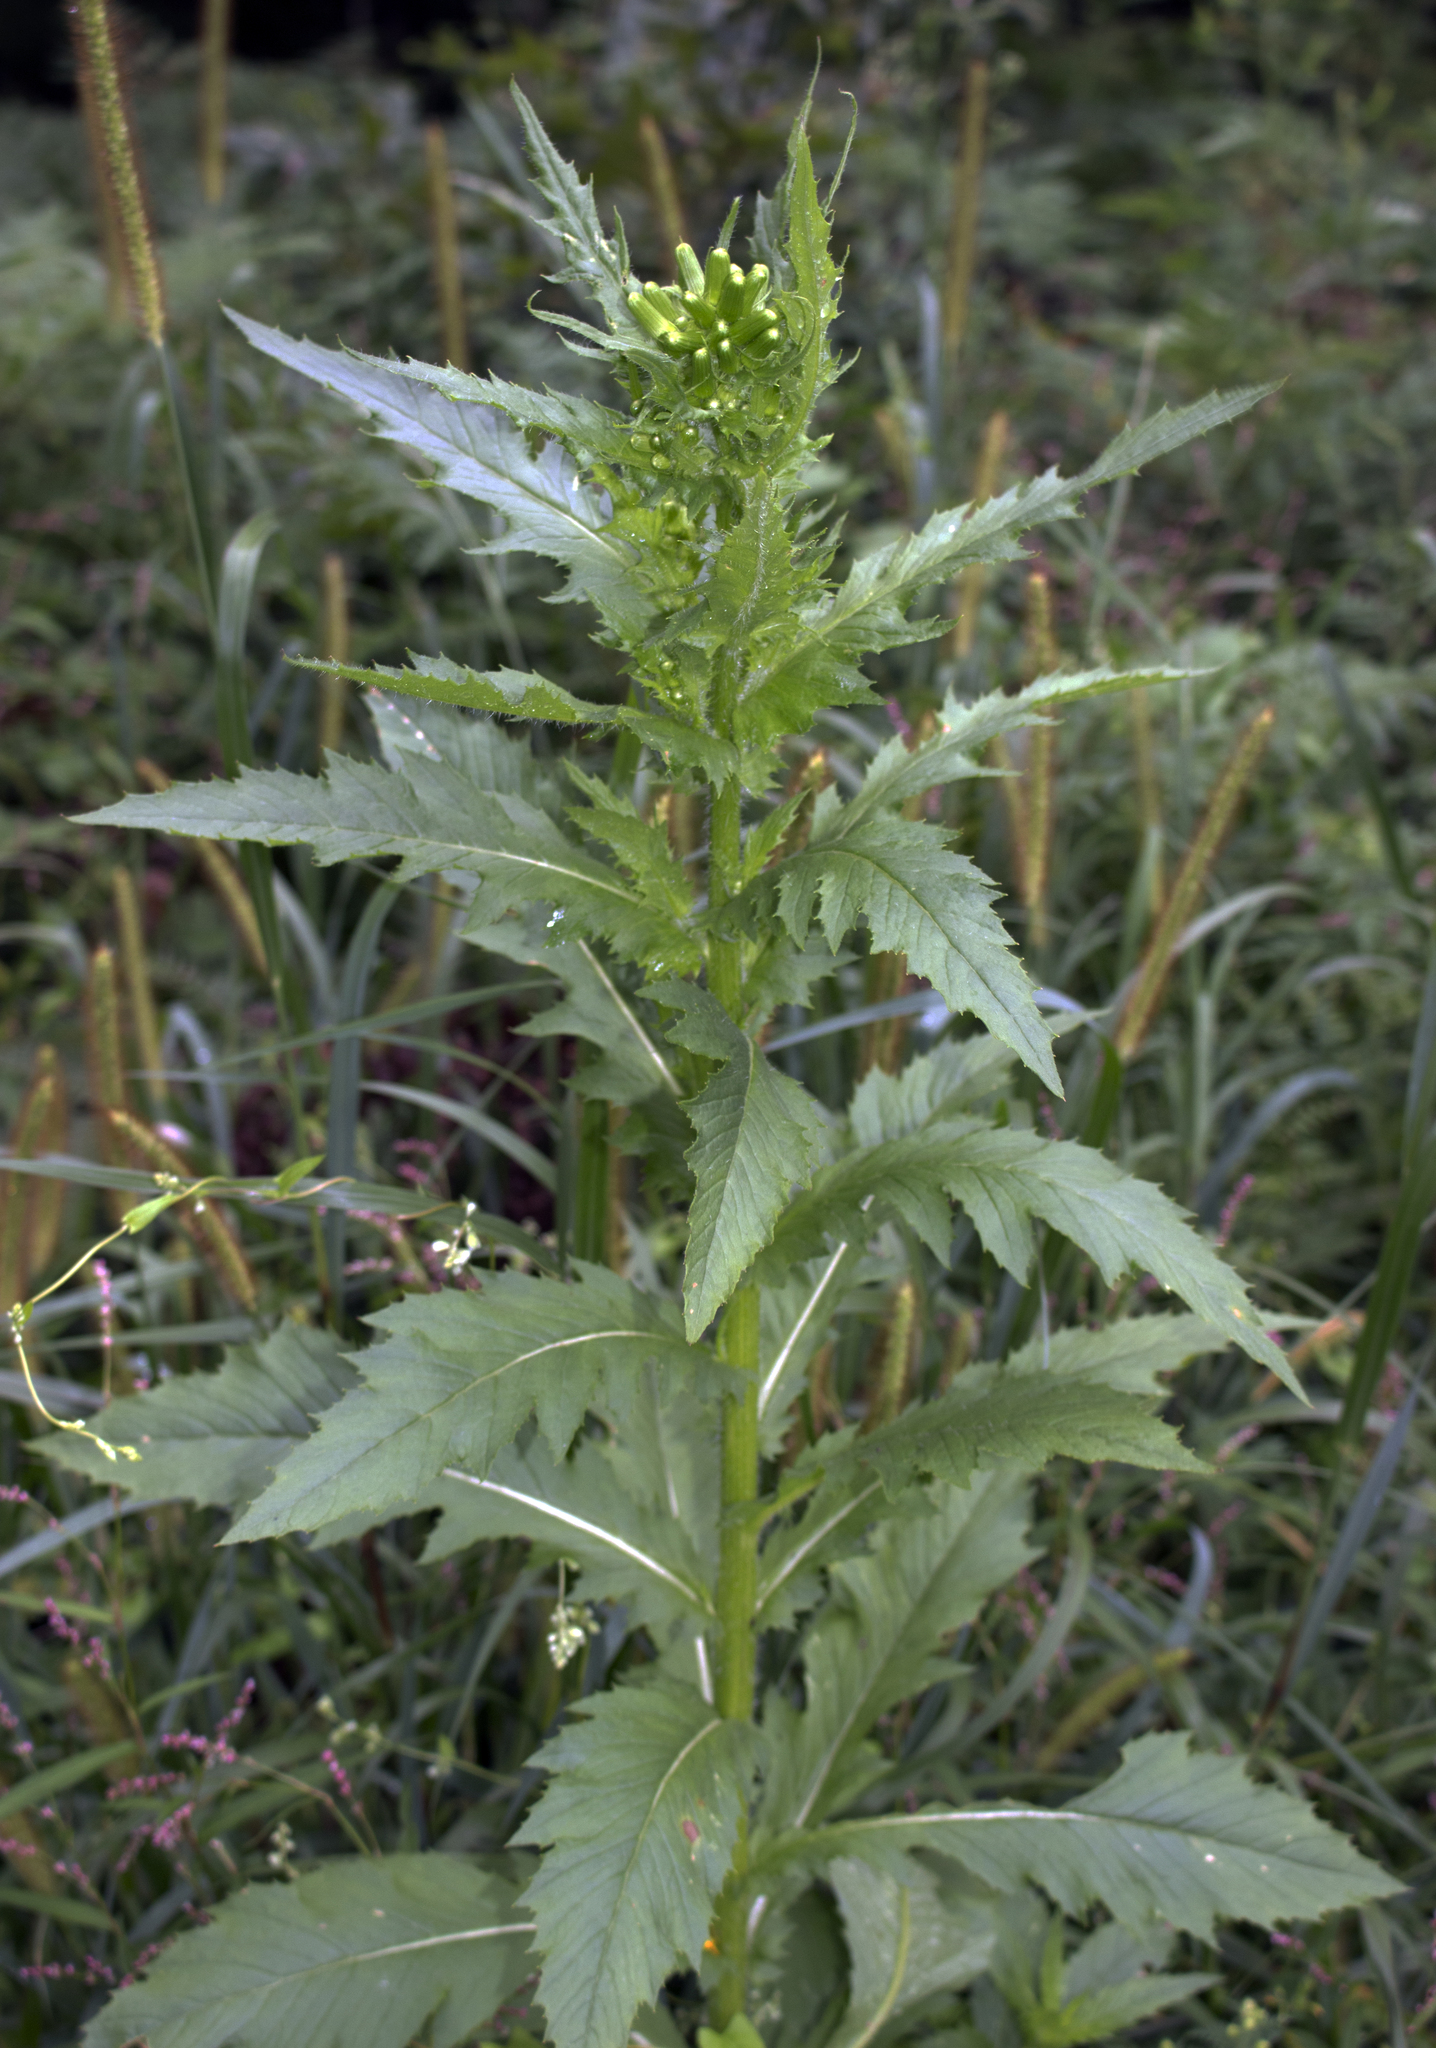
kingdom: Plantae
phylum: Tracheophyta
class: Magnoliopsida
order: Asterales
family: Asteraceae
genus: Erechtites
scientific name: Erechtites hieraciifolius
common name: American burnweed
